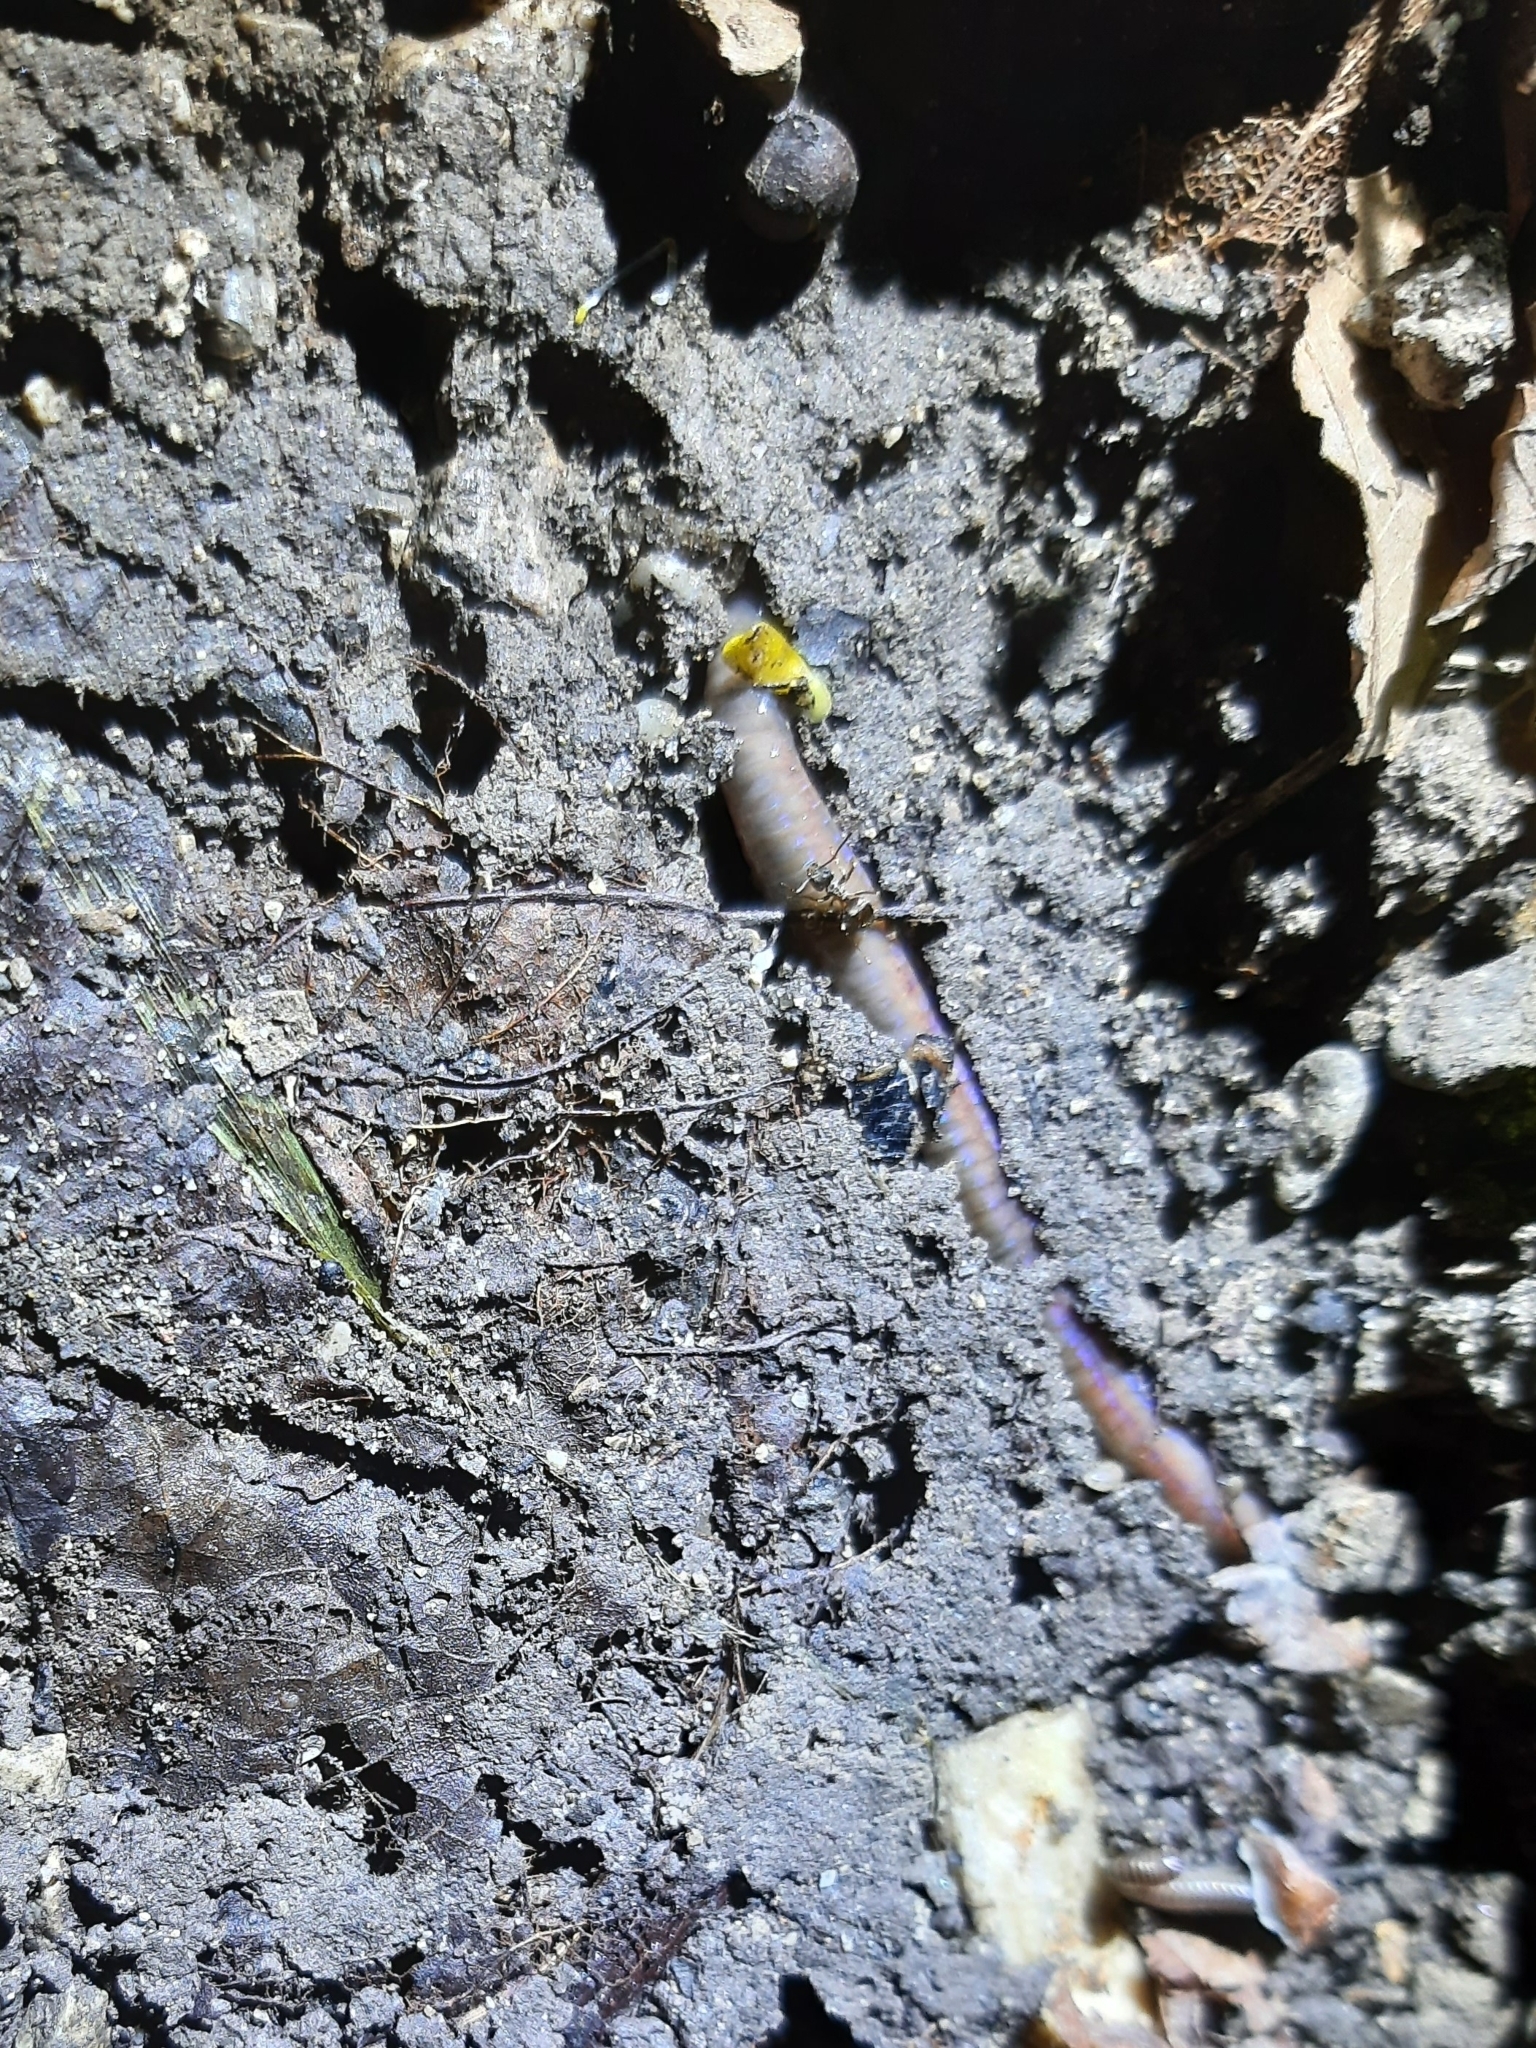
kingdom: Animalia
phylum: Annelida
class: Clitellata
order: Crassiclitellata
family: Lumbricidae
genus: Lumbricus
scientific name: Lumbricus terrestris
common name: Common earthworm
